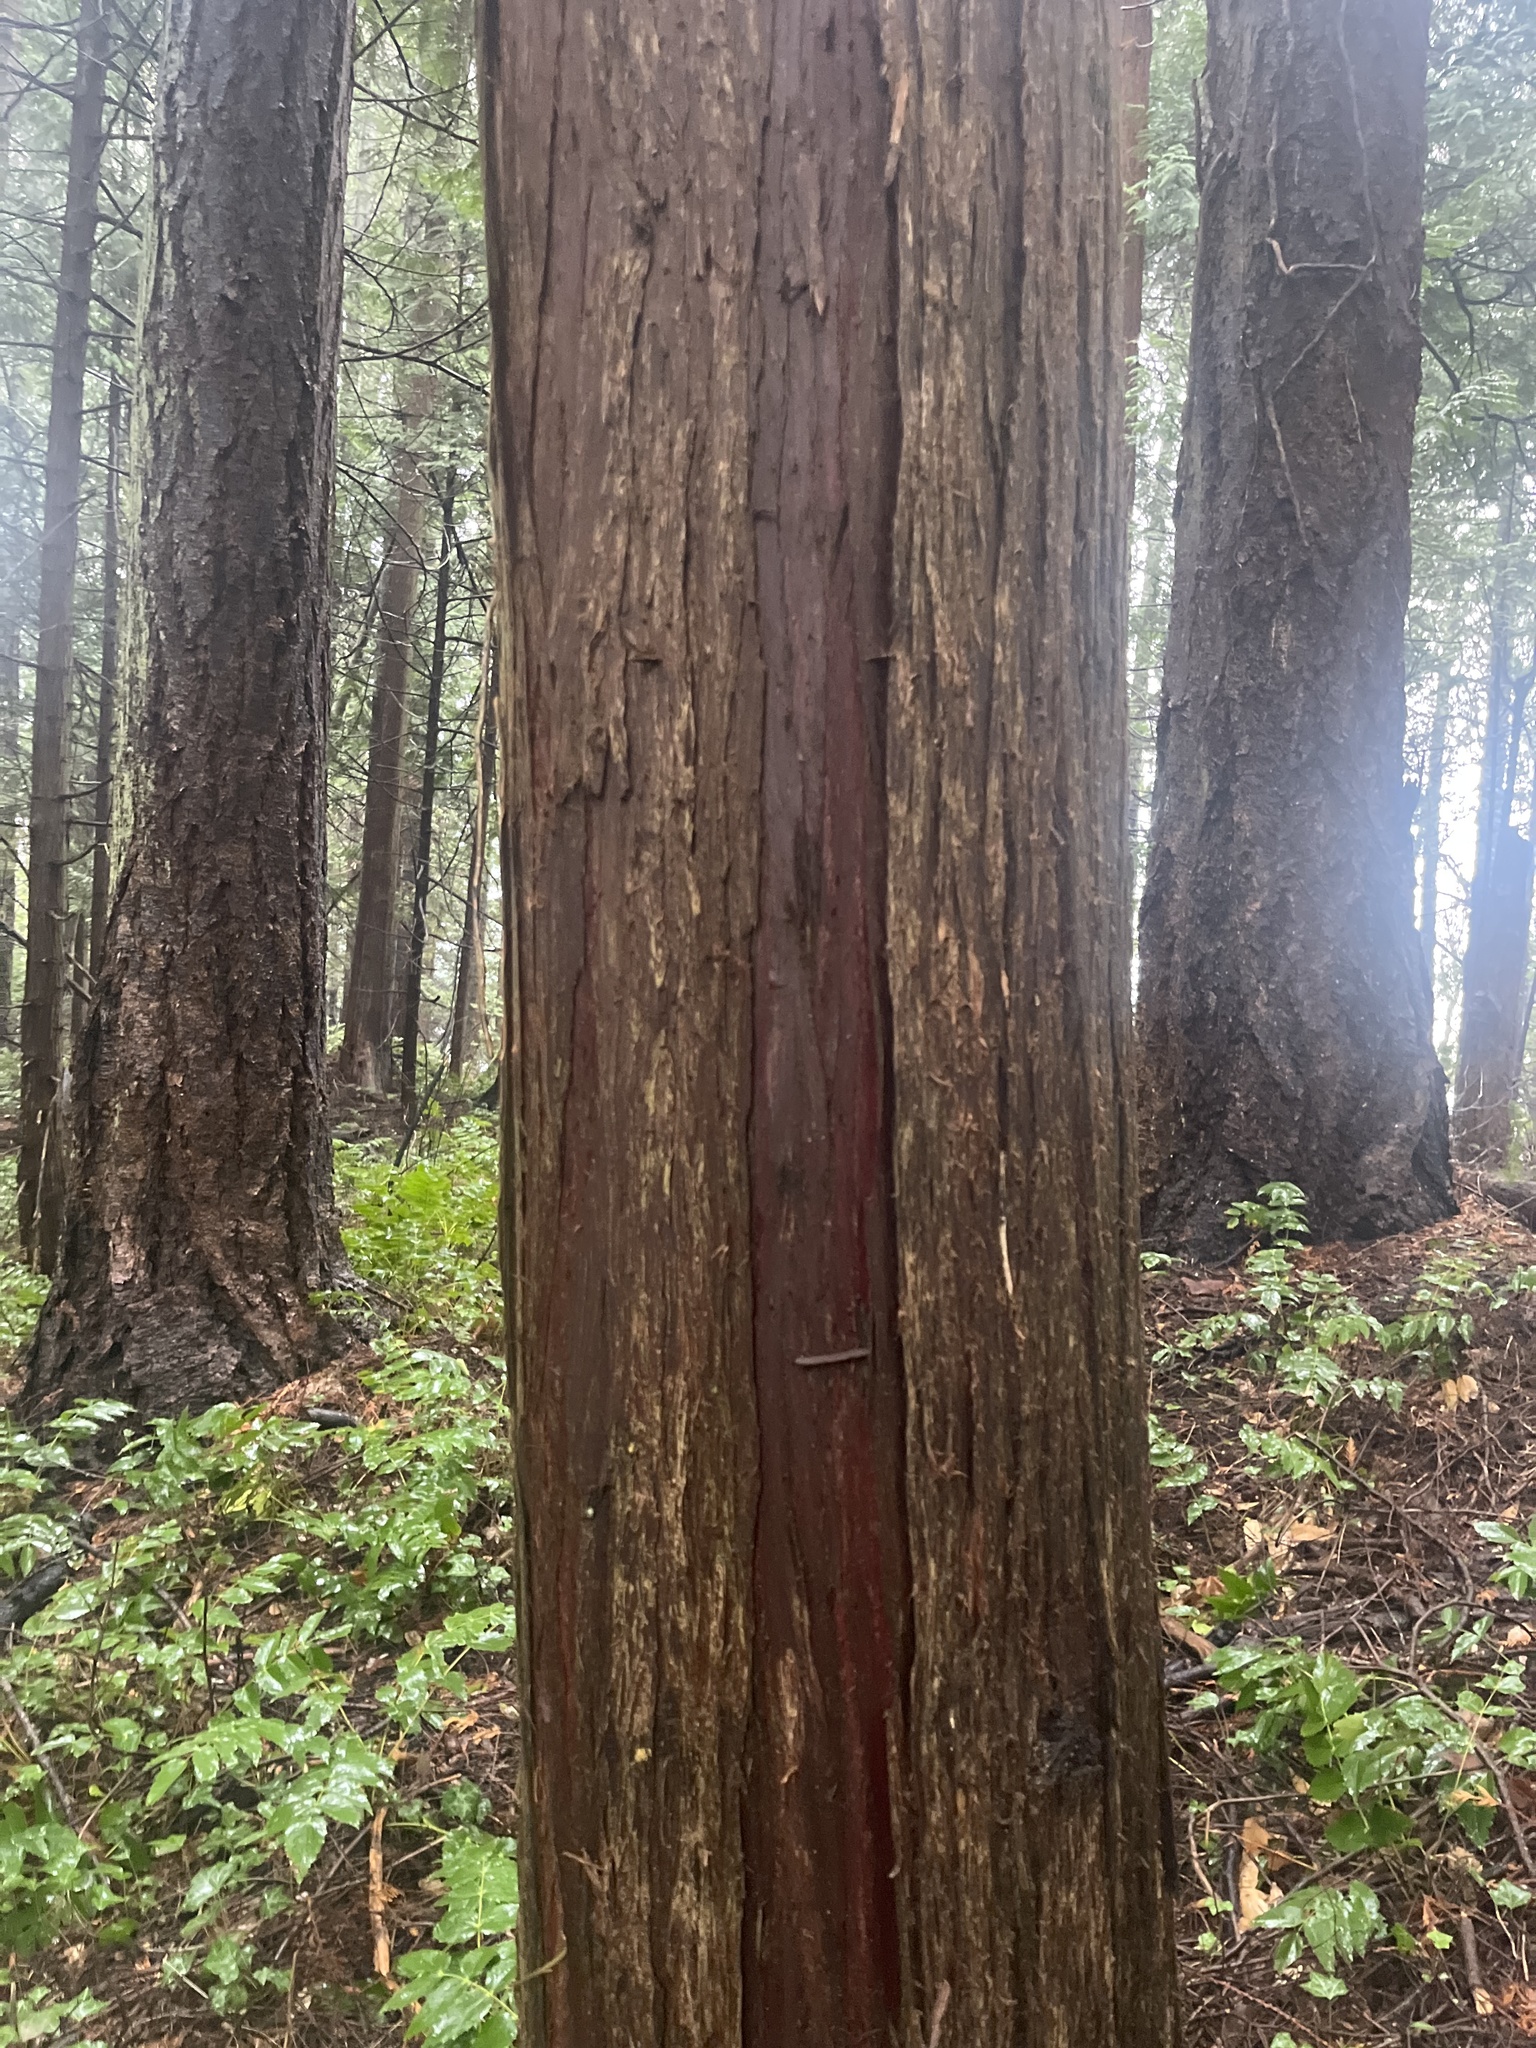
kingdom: Plantae
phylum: Tracheophyta
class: Pinopsida
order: Pinales
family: Cupressaceae
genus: Thuja
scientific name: Thuja plicata
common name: Western red-cedar
